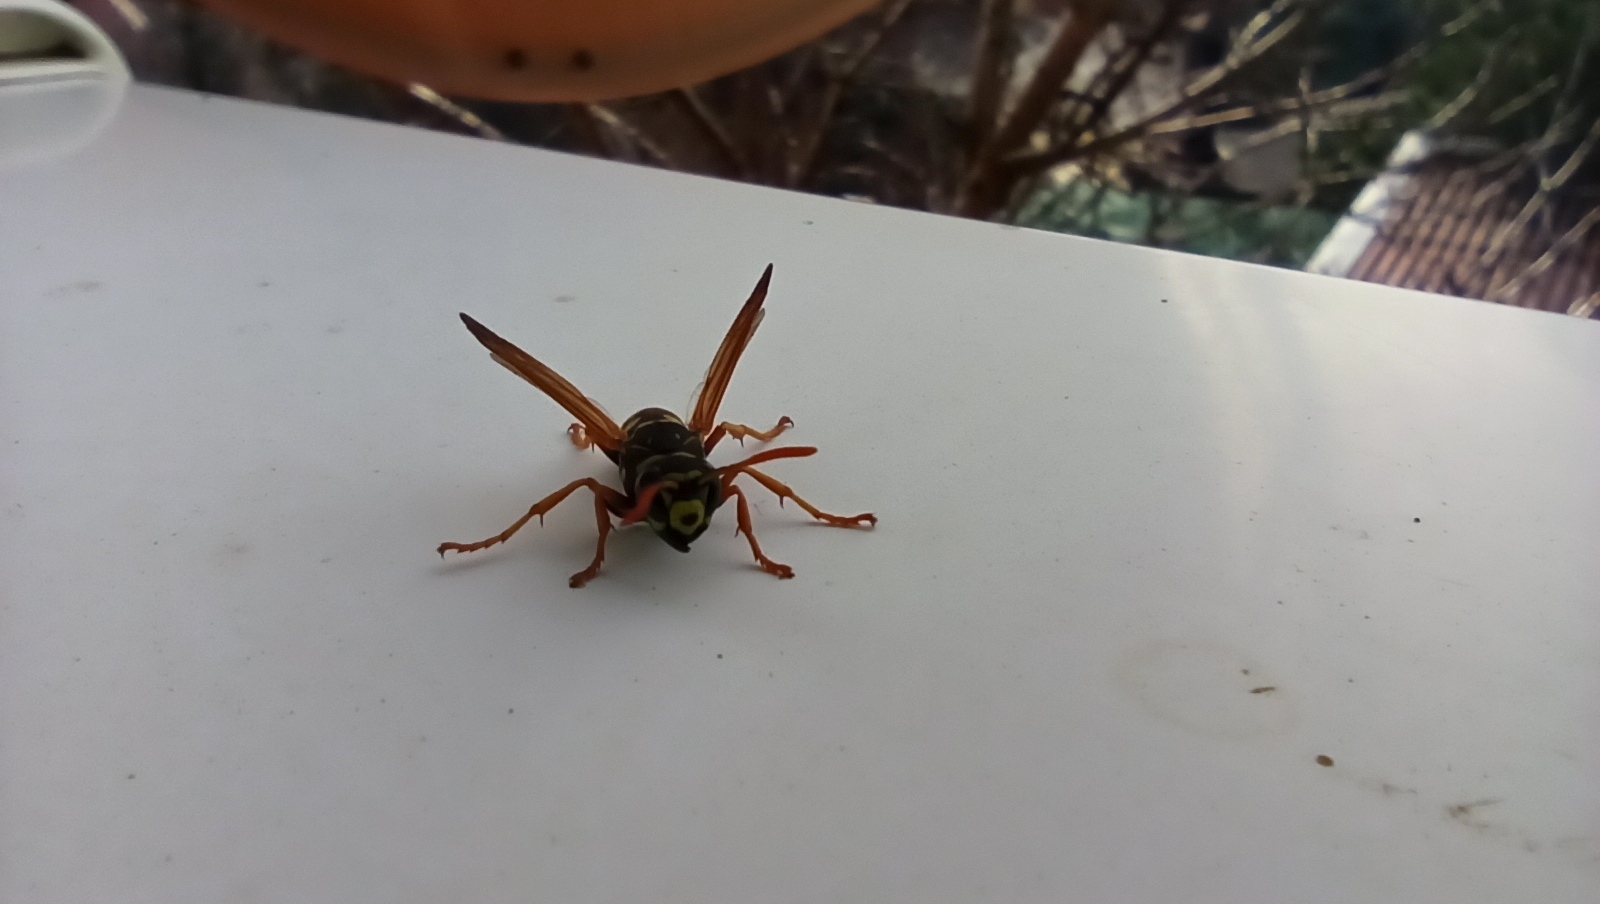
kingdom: Animalia
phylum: Arthropoda
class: Insecta
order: Hymenoptera
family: Eumenidae
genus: Polistes
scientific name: Polistes dominula
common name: Paper wasp
